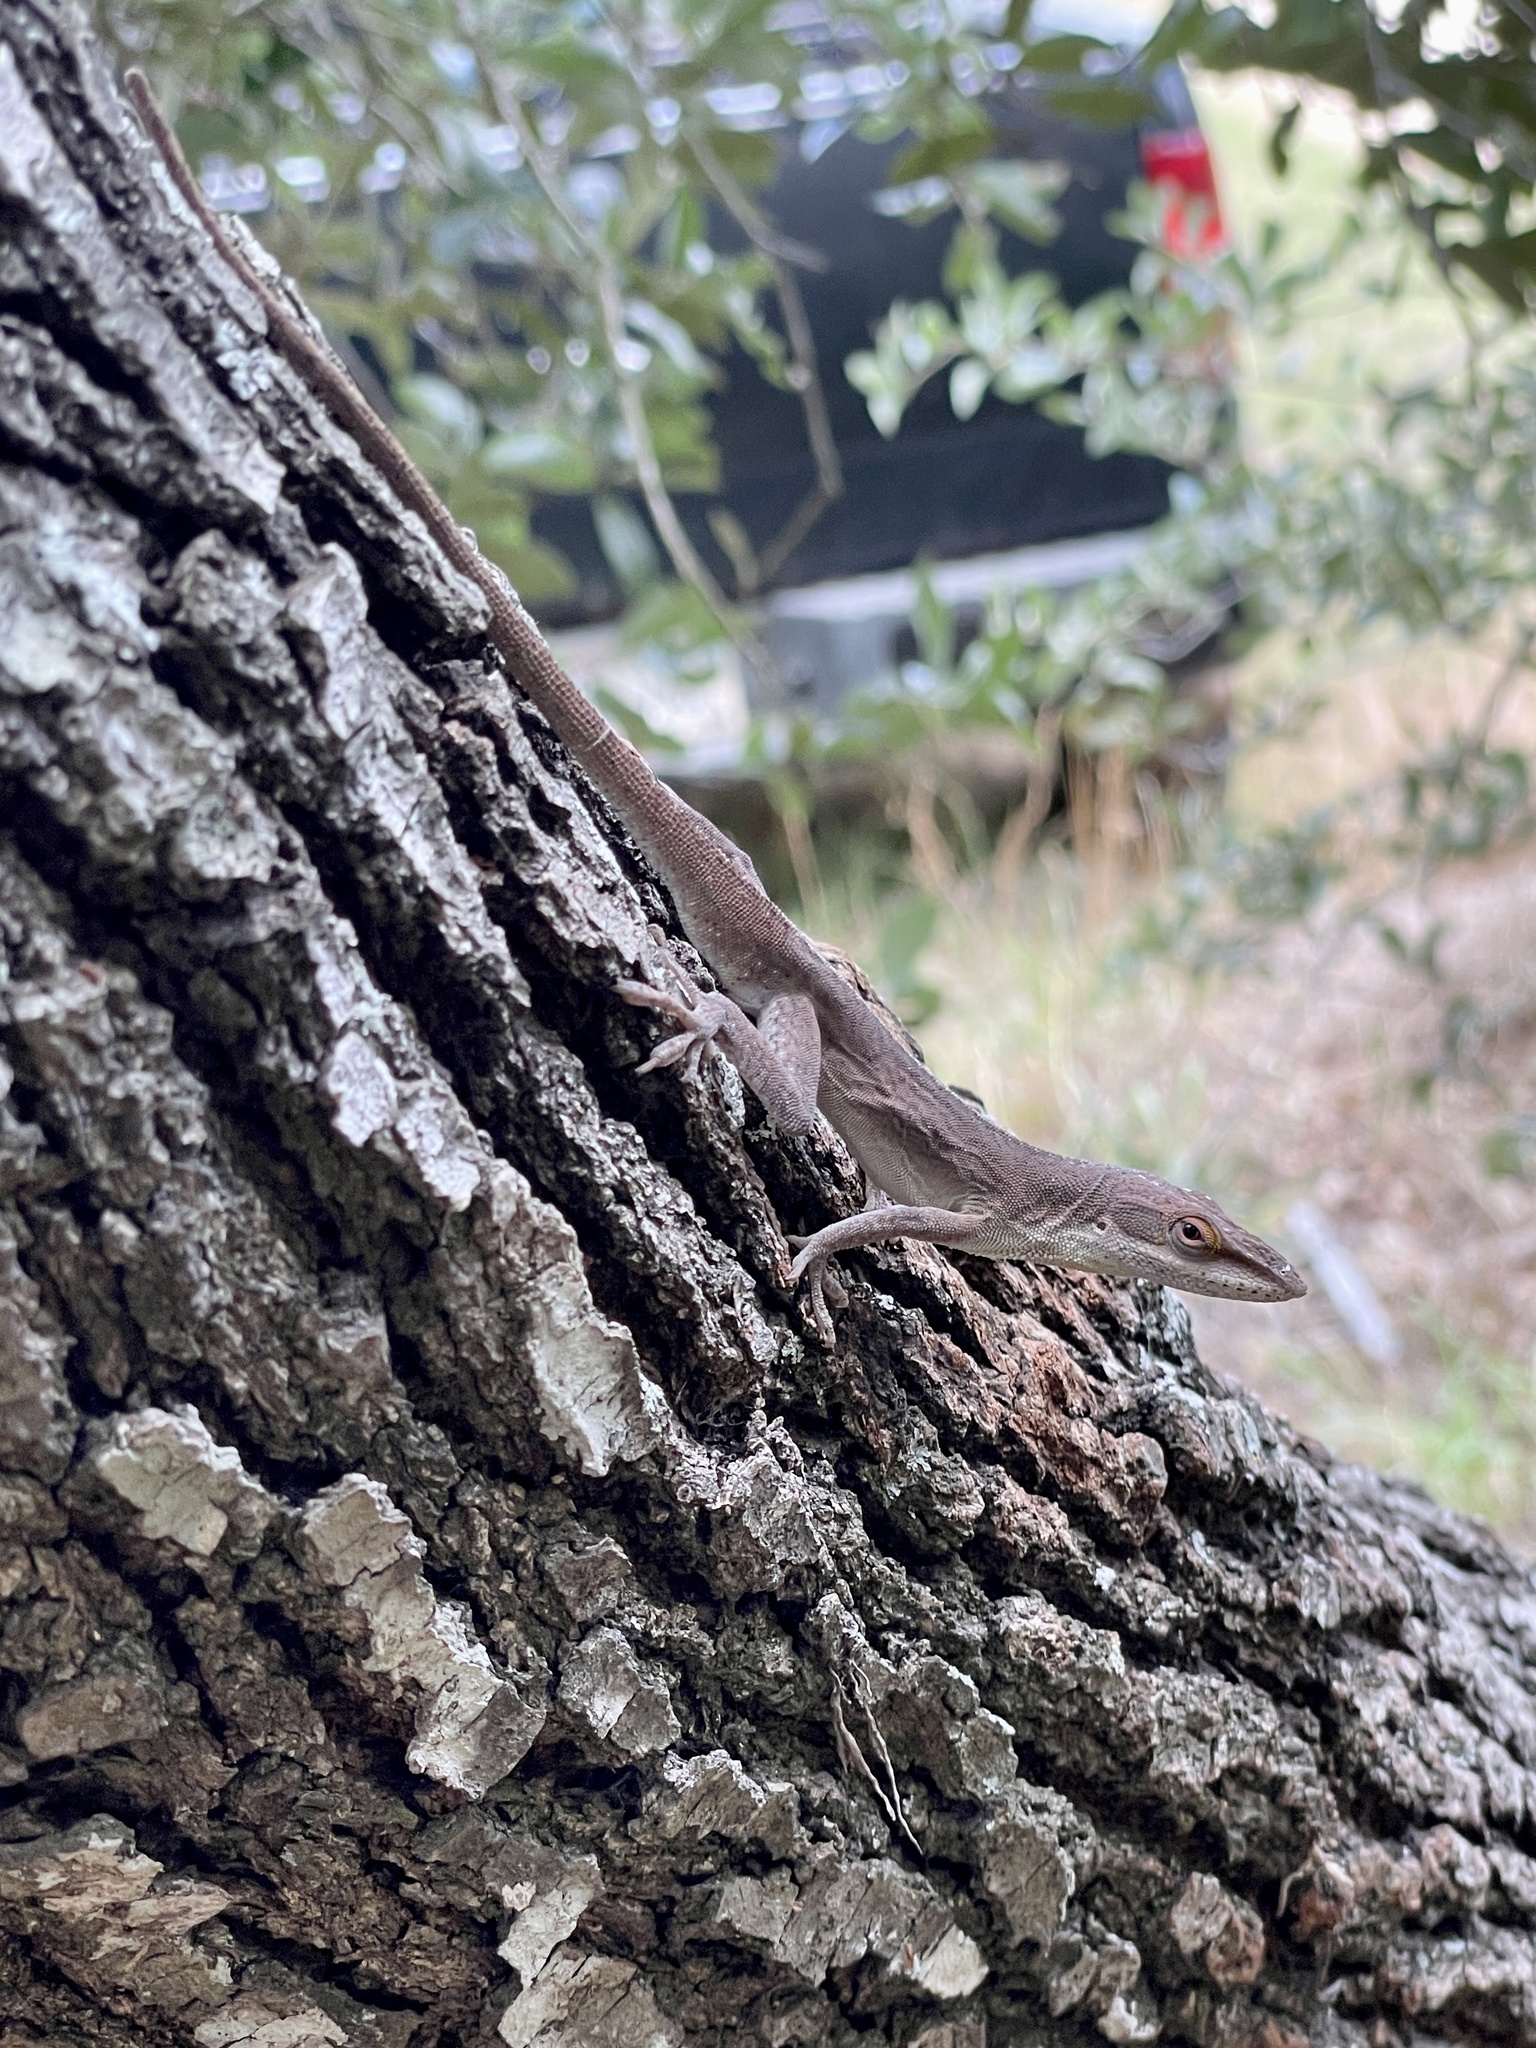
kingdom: Animalia
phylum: Chordata
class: Squamata
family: Dactyloidae
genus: Anolis
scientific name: Anolis carolinensis
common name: Green anole
